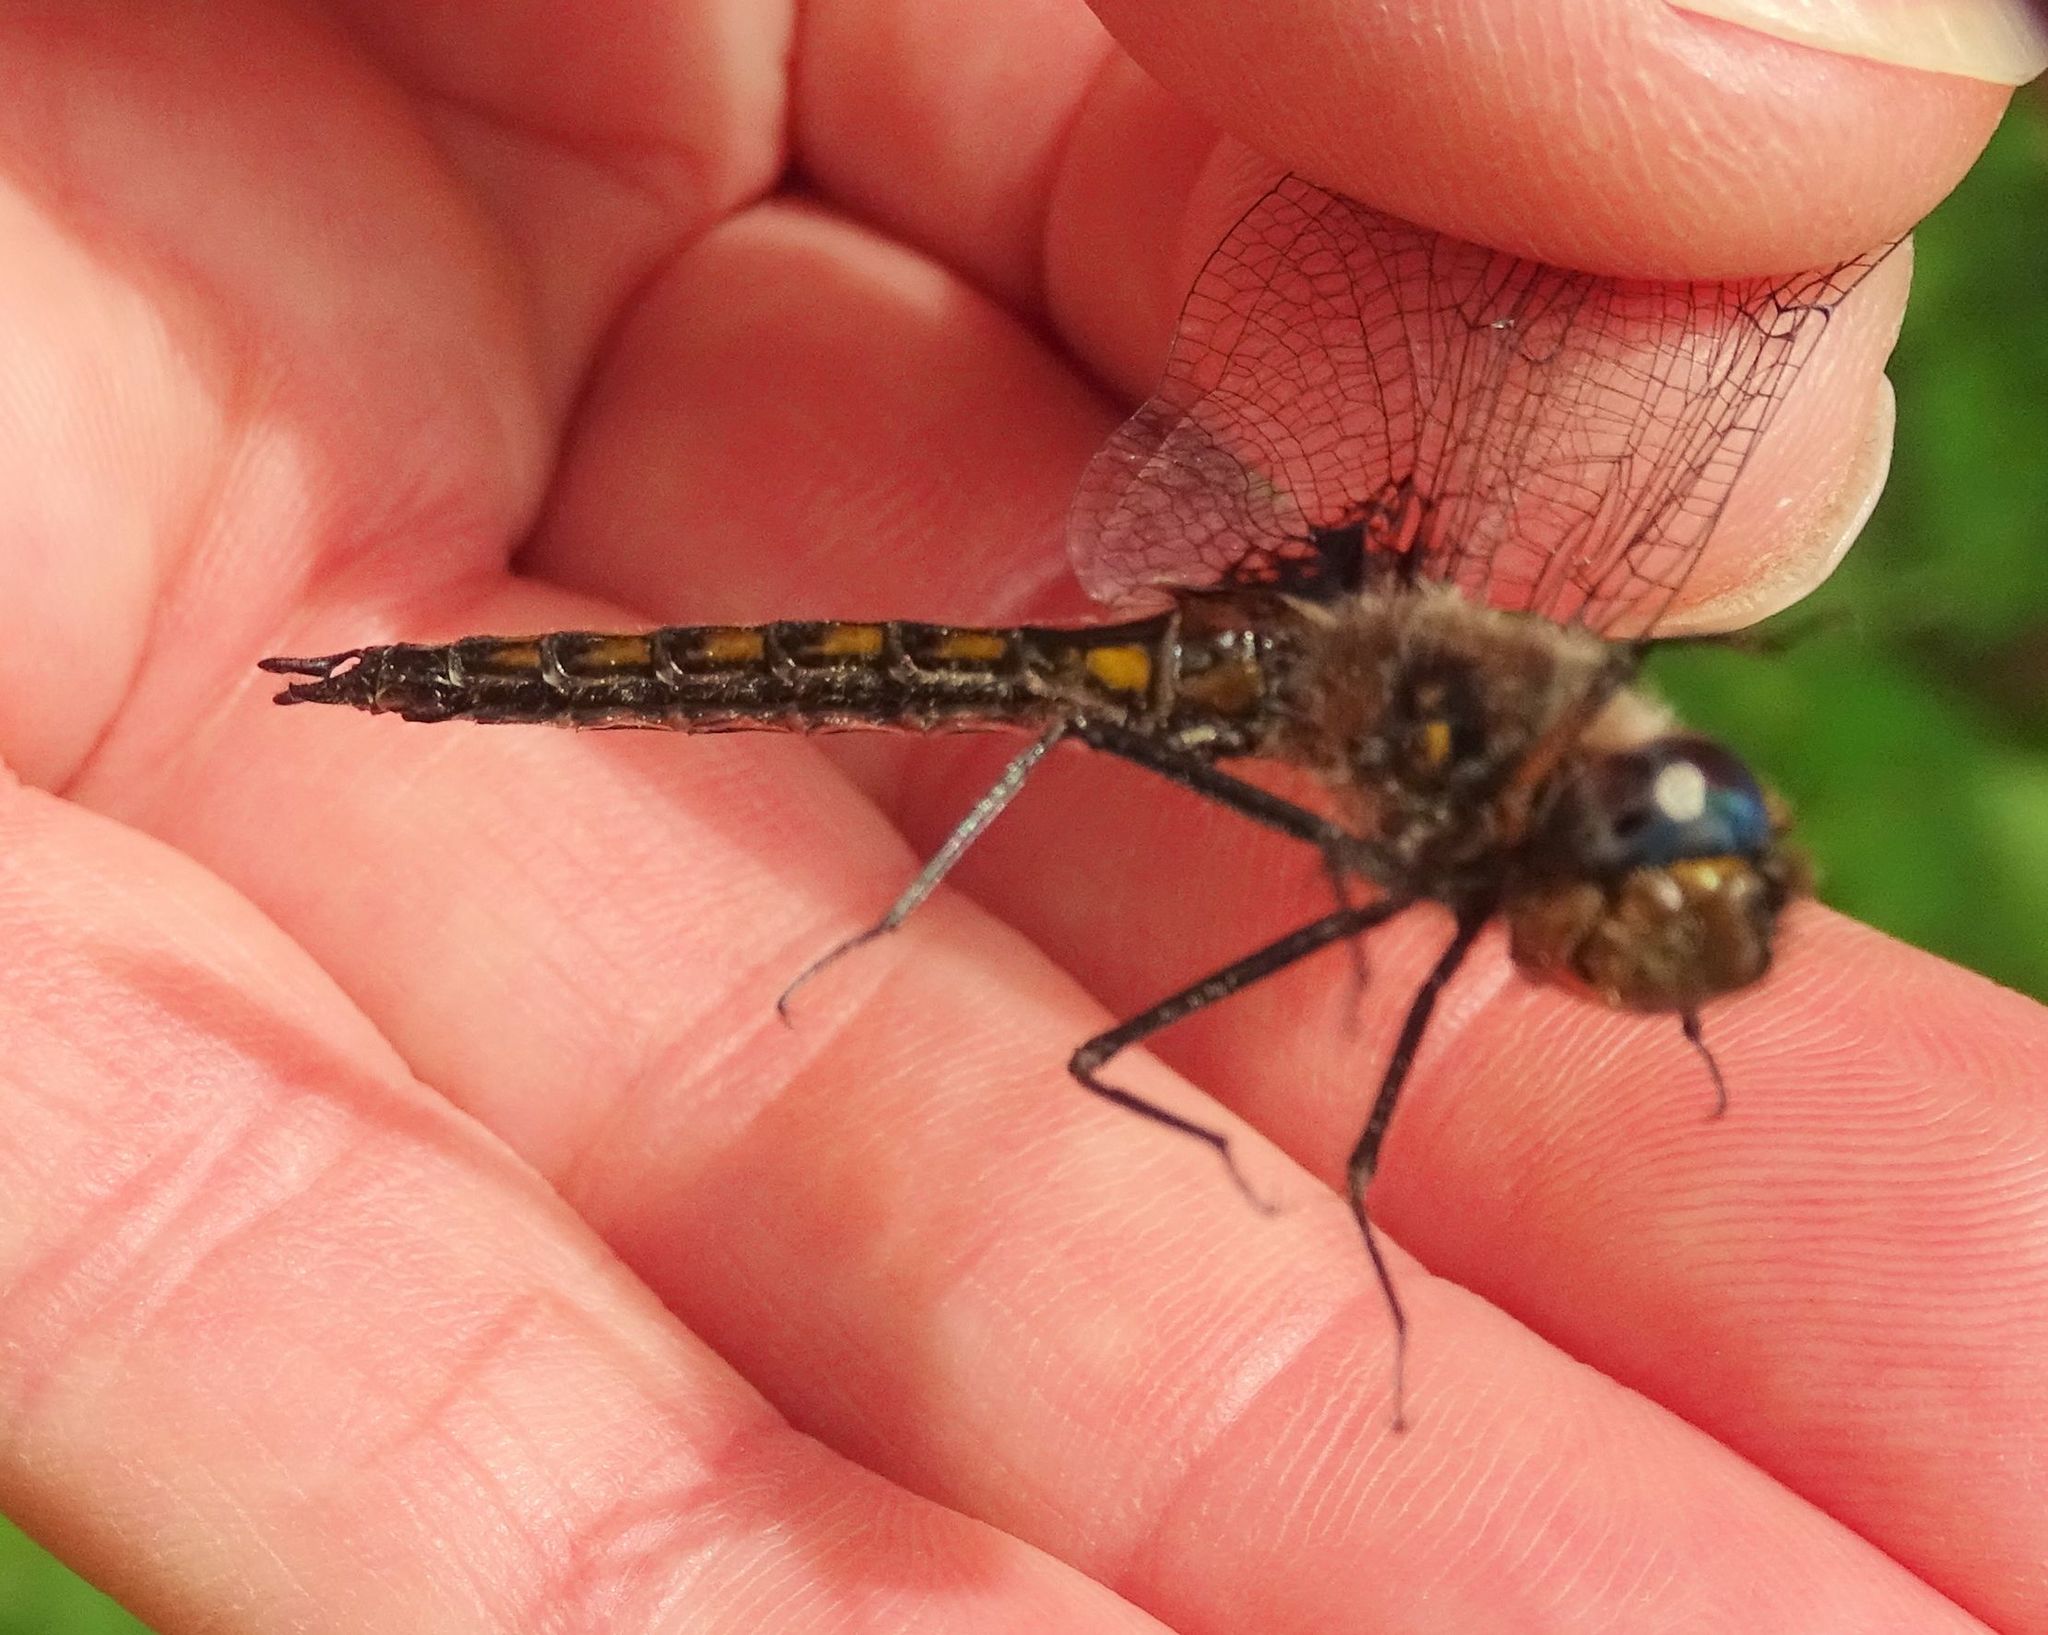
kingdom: Animalia
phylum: Arthropoda
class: Insecta
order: Odonata
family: Corduliidae
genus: Epitheca
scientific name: Epitheca cynosura
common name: Common baskettail
